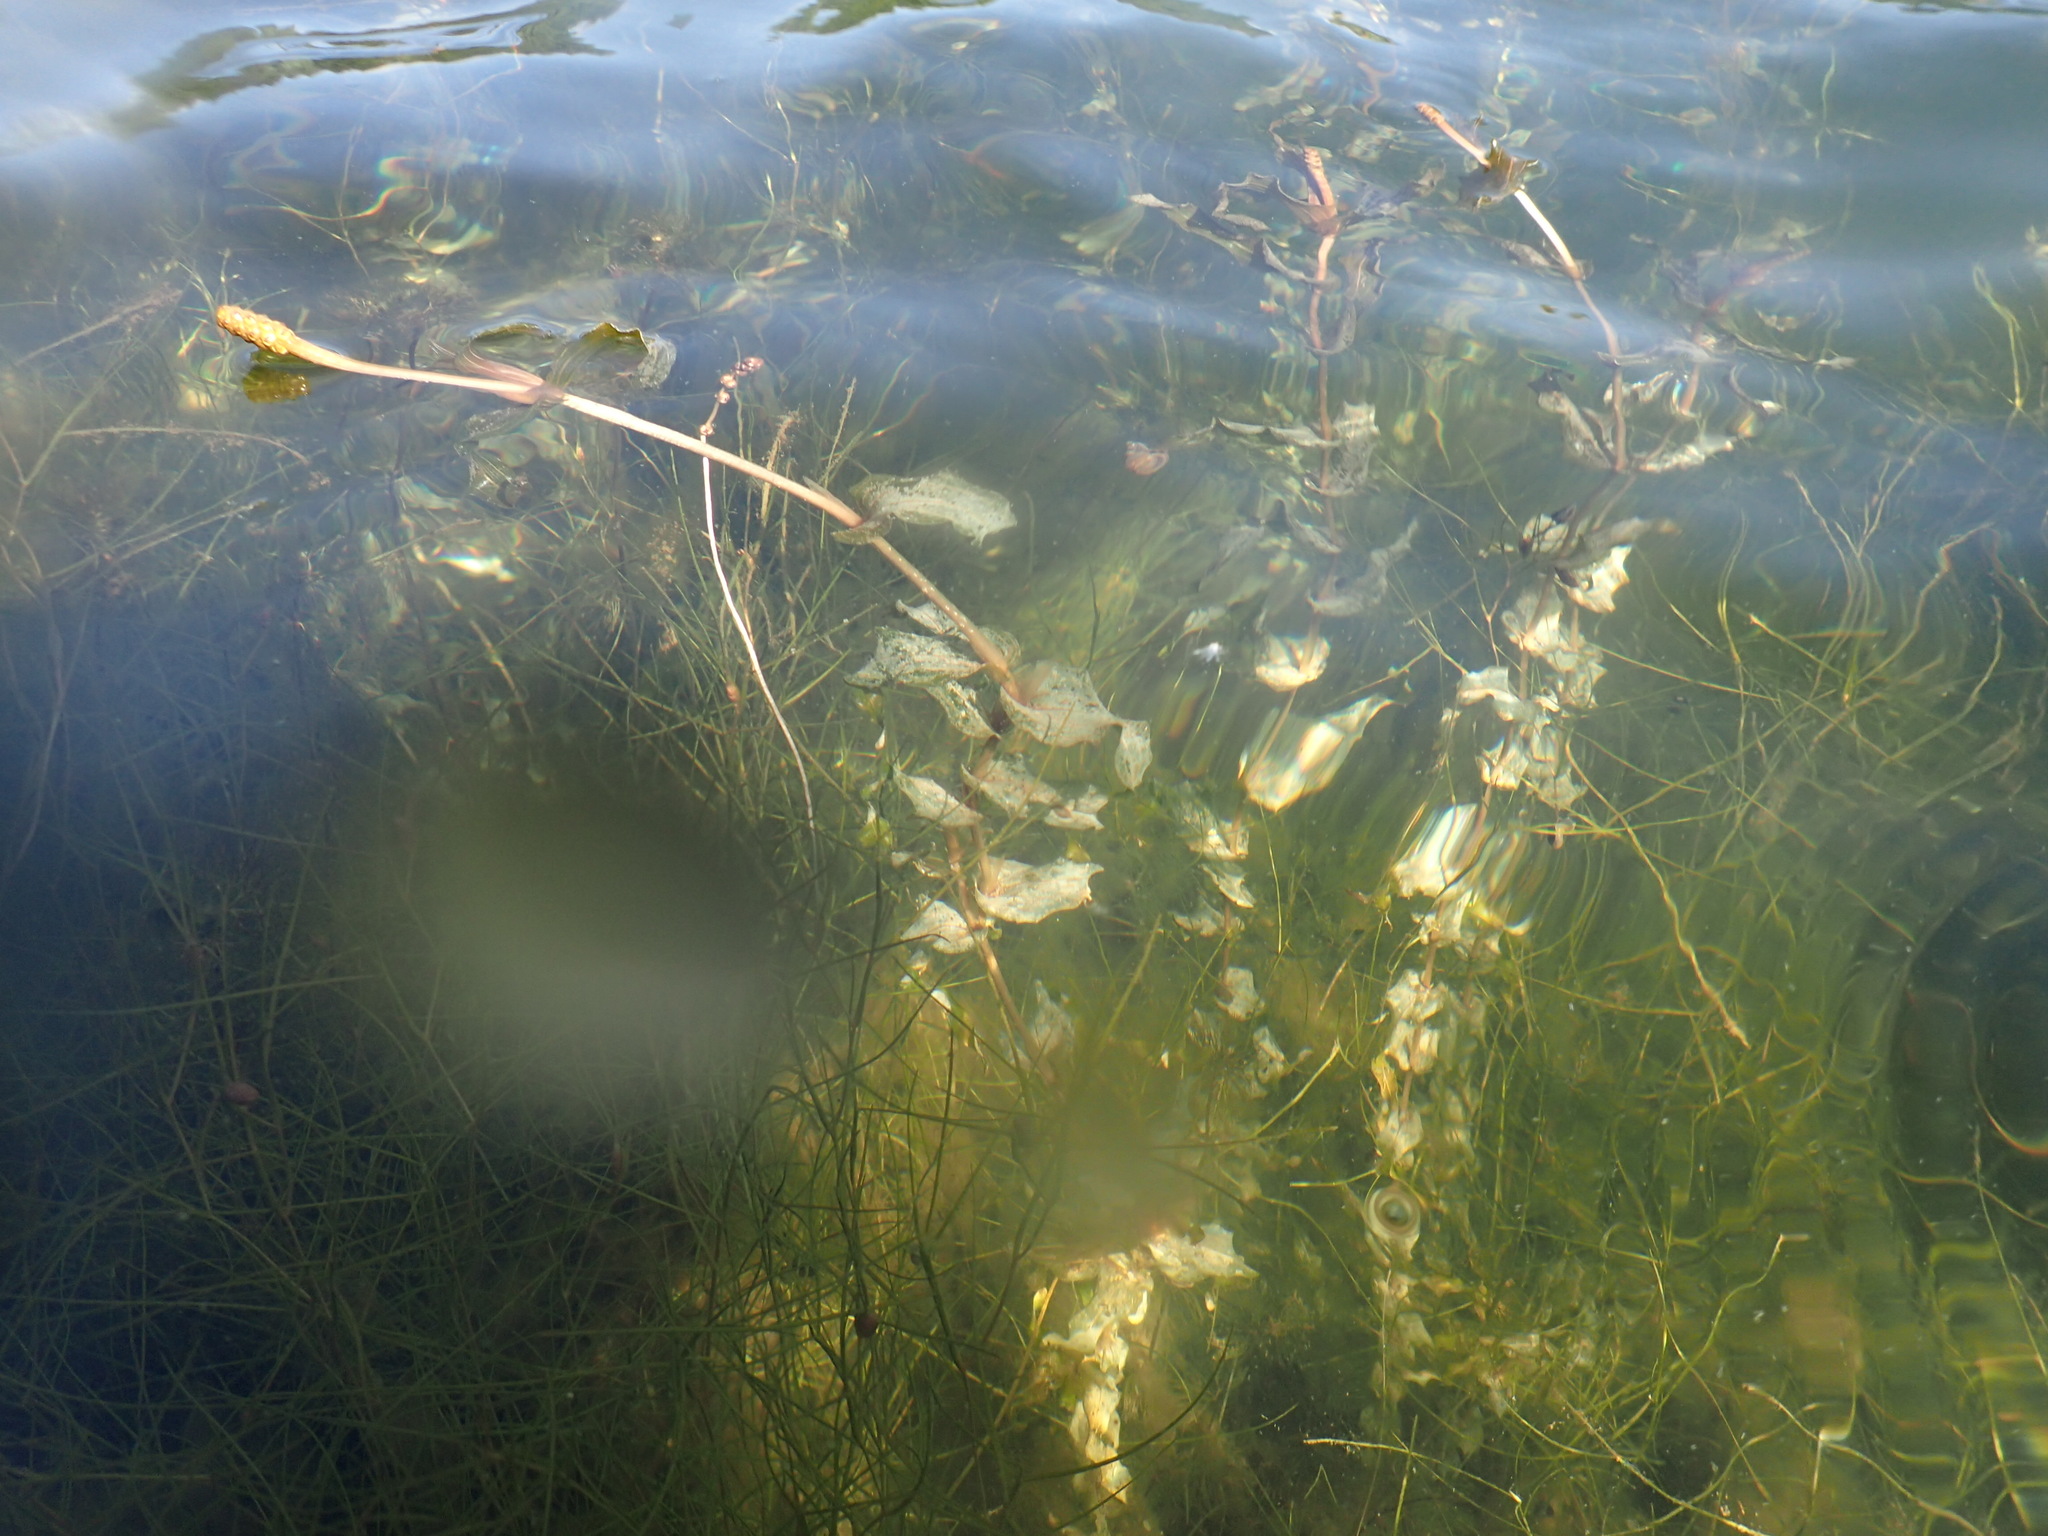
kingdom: Plantae
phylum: Tracheophyta
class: Liliopsida
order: Alismatales
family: Potamogetonaceae
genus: Potamogeton
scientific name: Potamogeton richardsonii
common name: Richardson's pondweed
